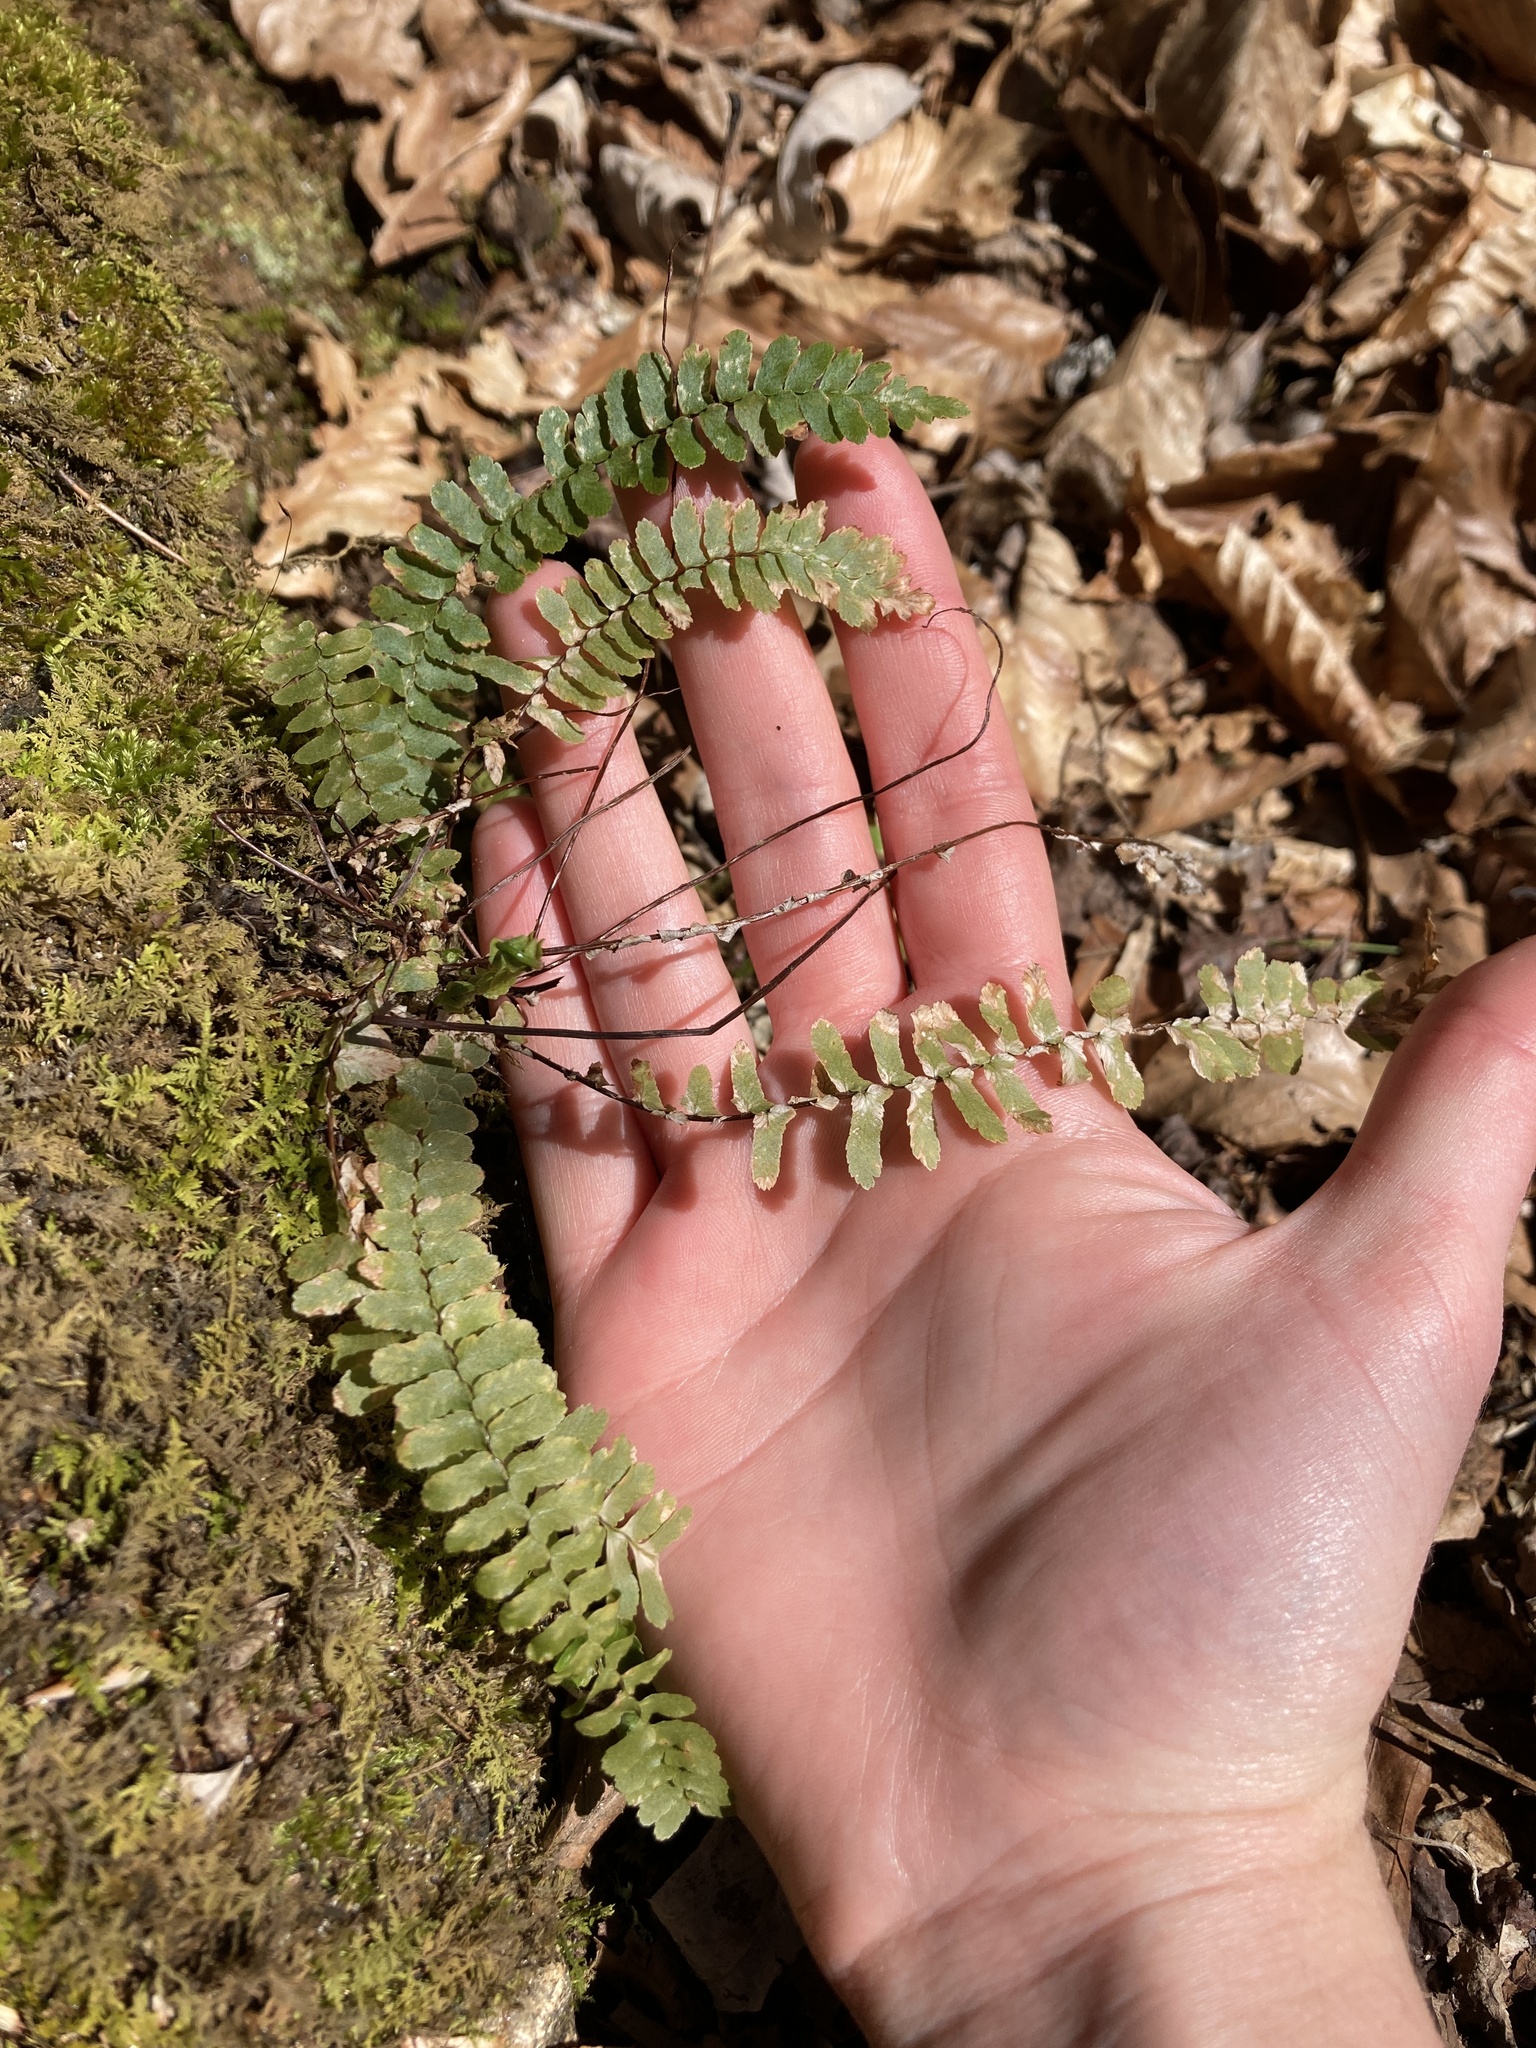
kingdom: Plantae
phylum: Tracheophyta
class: Polypodiopsida
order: Polypodiales
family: Aspleniaceae
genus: Asplenium
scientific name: Asplenium platyneuron
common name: Ebony spleenwort
